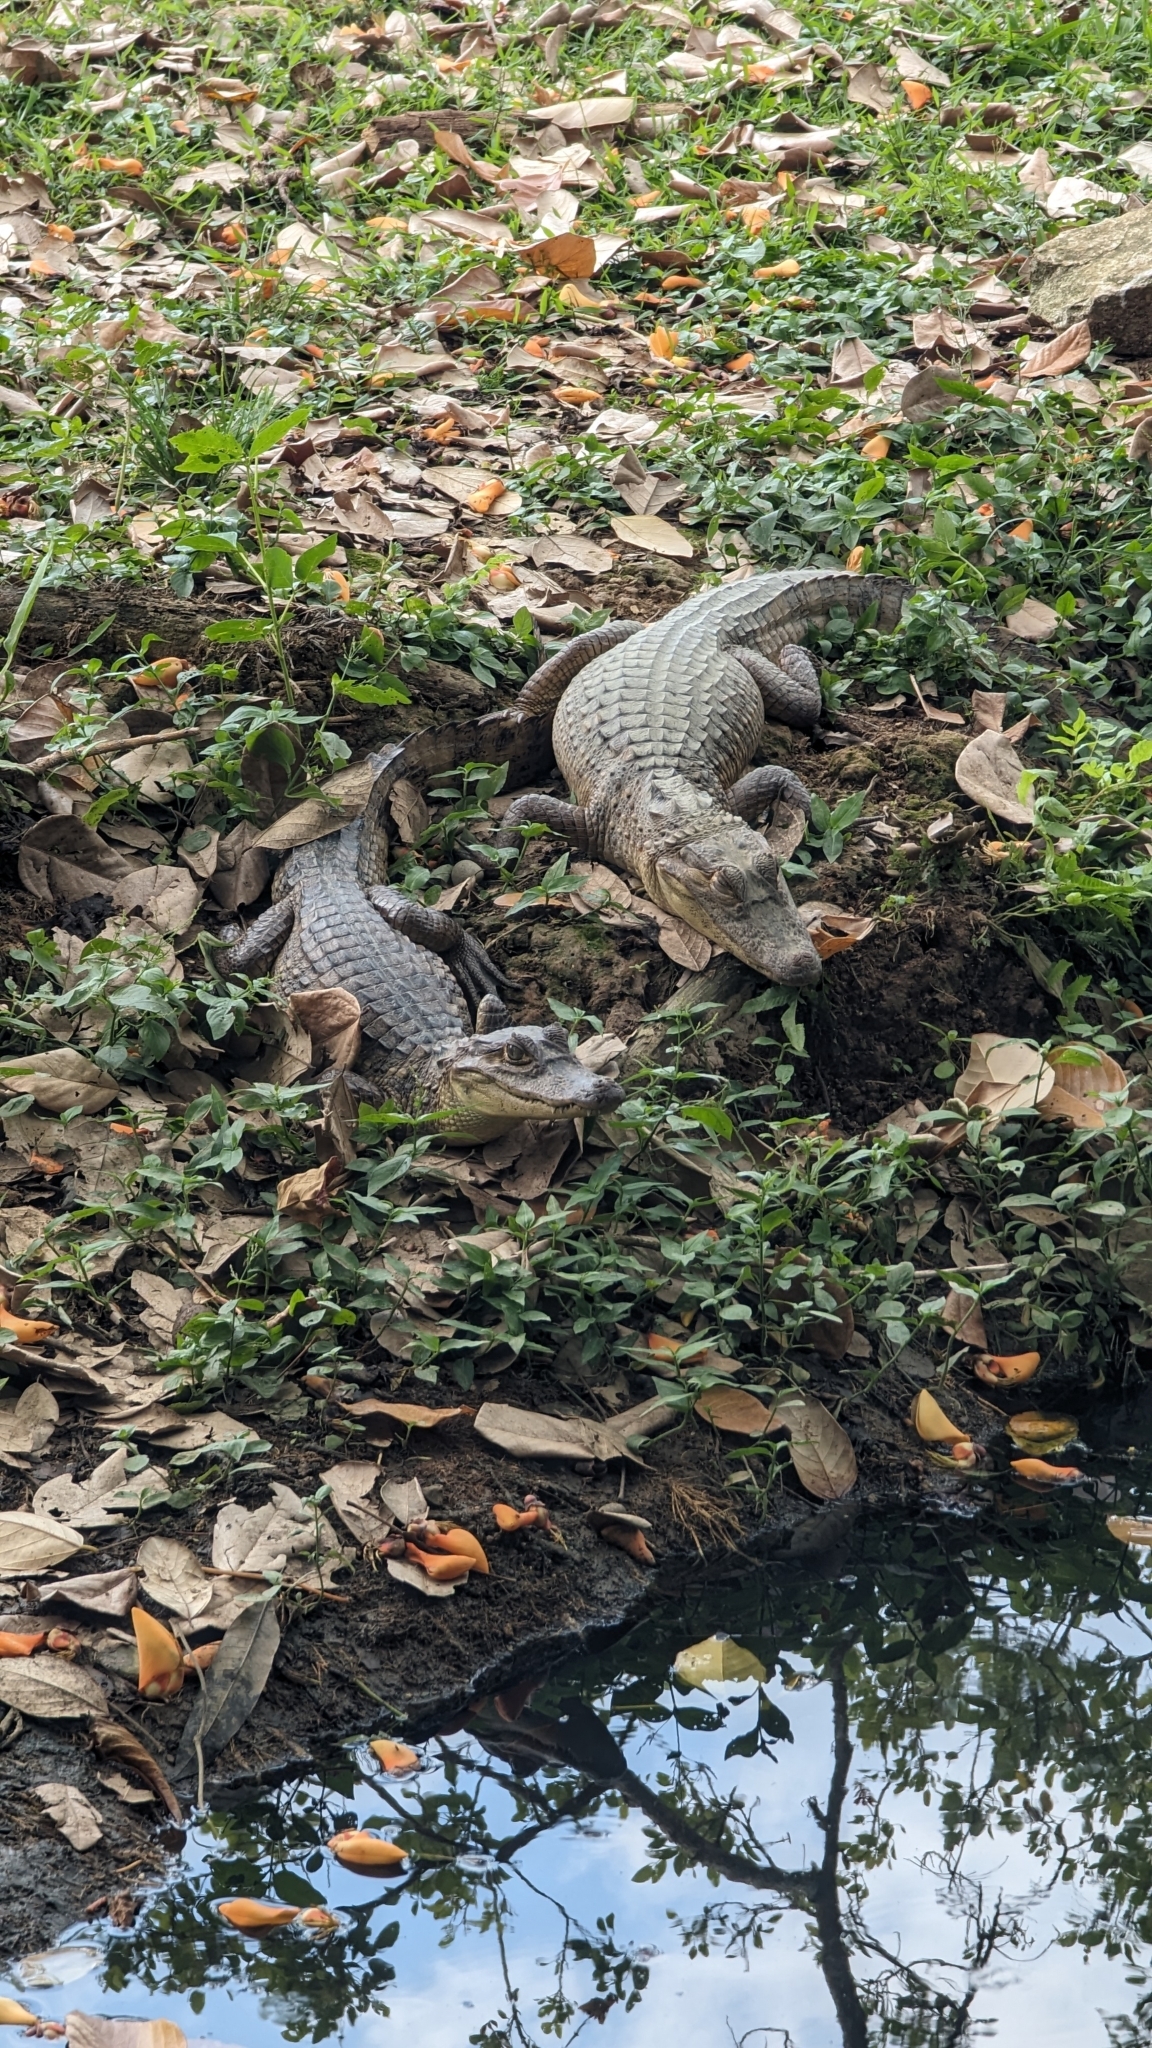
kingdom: Animalia
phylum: Chordata
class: Crocodylia
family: Alligatoridae
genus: Caiman
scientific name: Caiman crocodilus
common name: Common caiman
